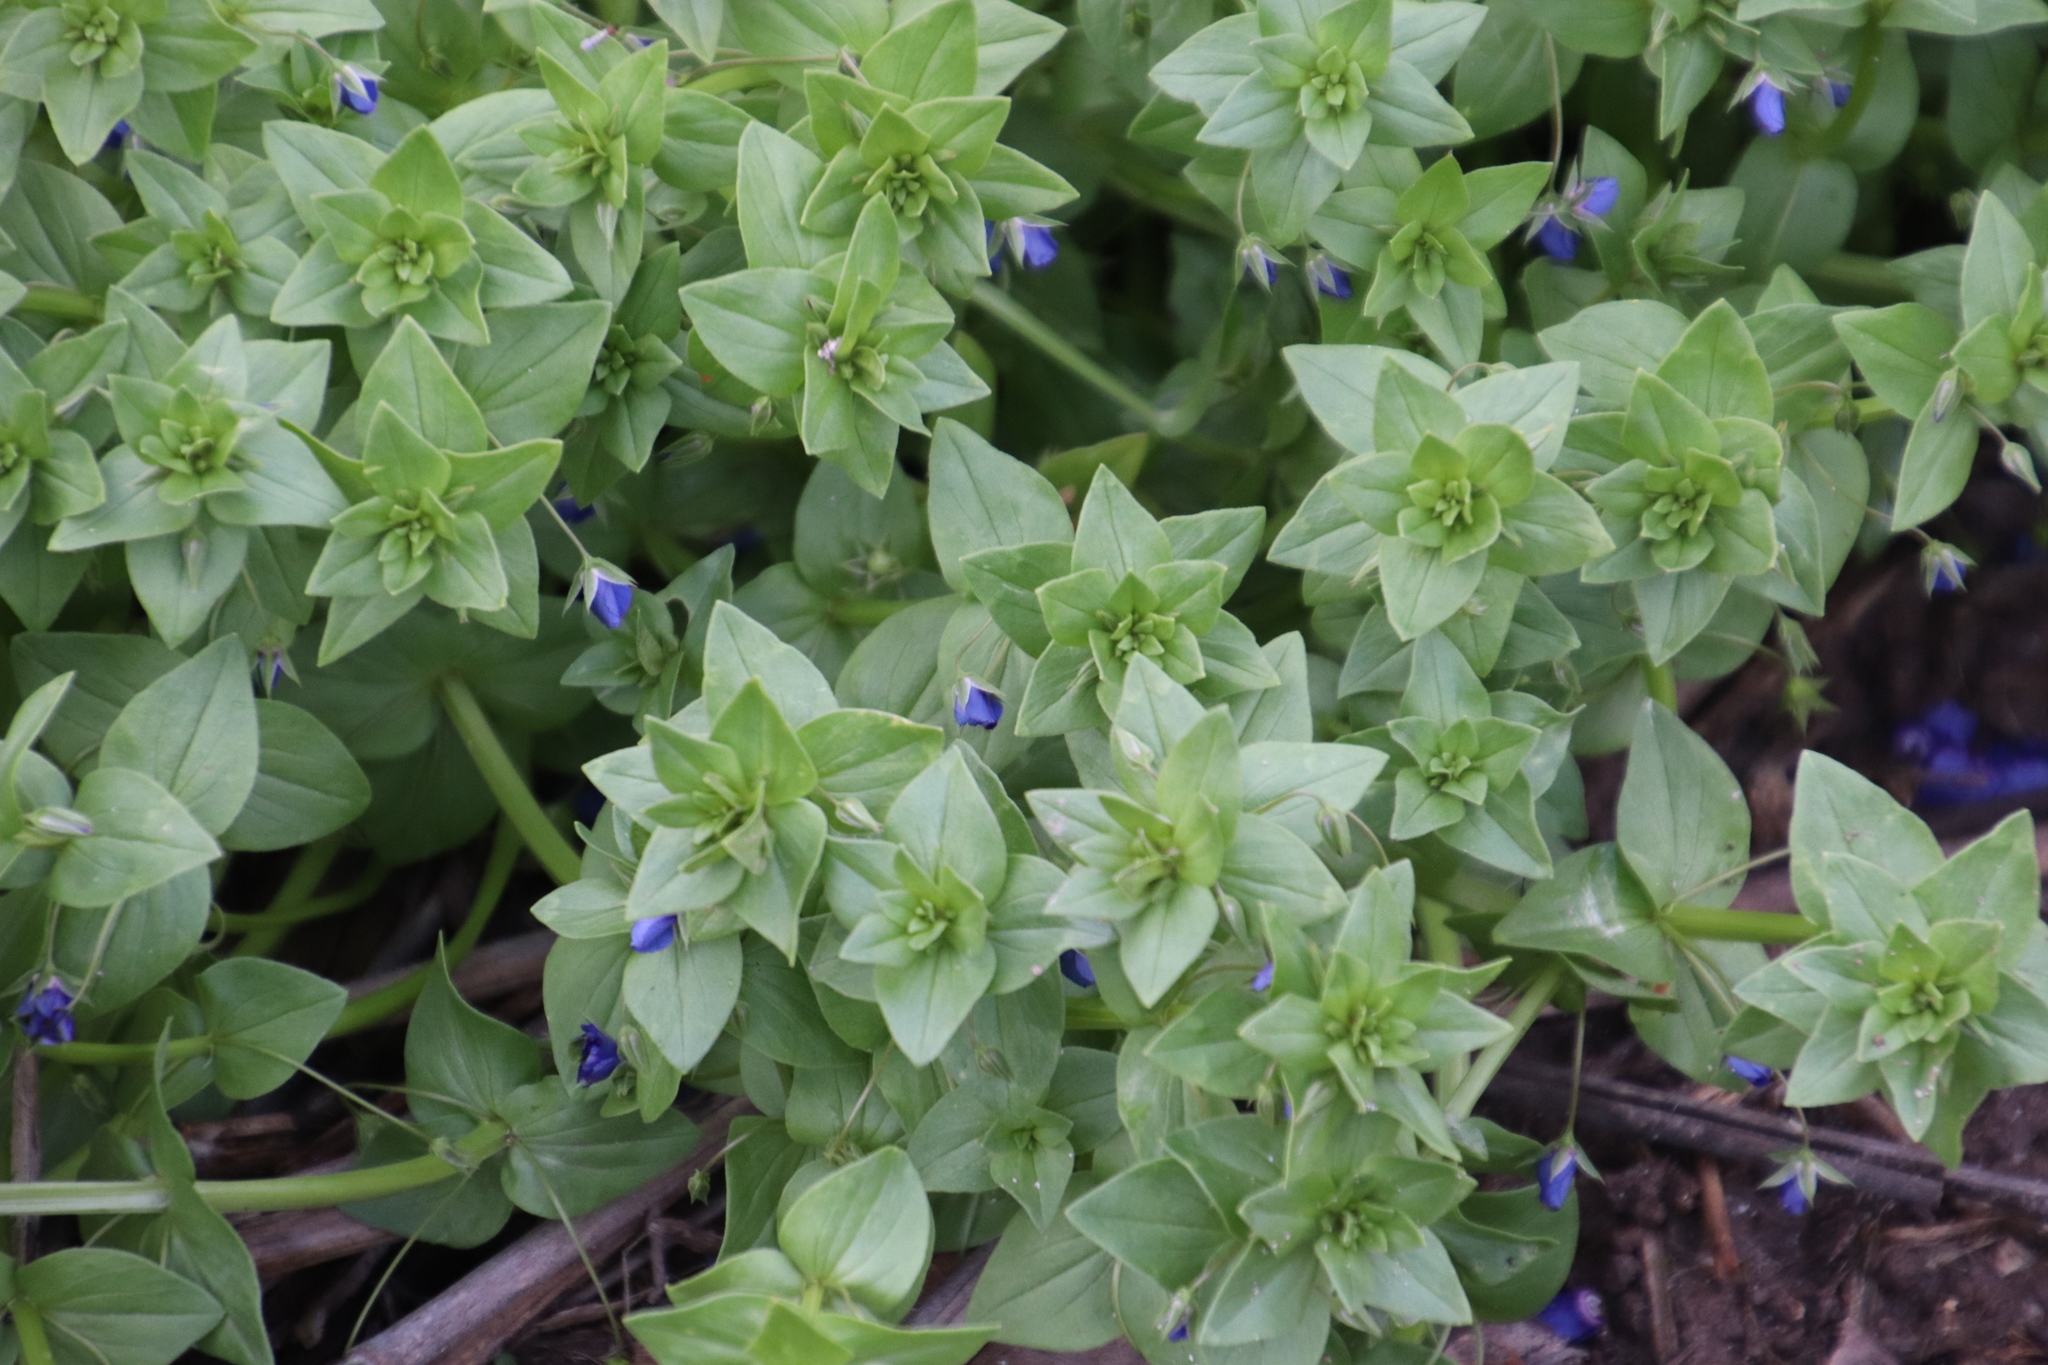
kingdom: Plantae
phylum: Tracheophyta
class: Magnoliopsida
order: Ericales
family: Primulaceae
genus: Lysimachia
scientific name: Lysimachia loeflingii
